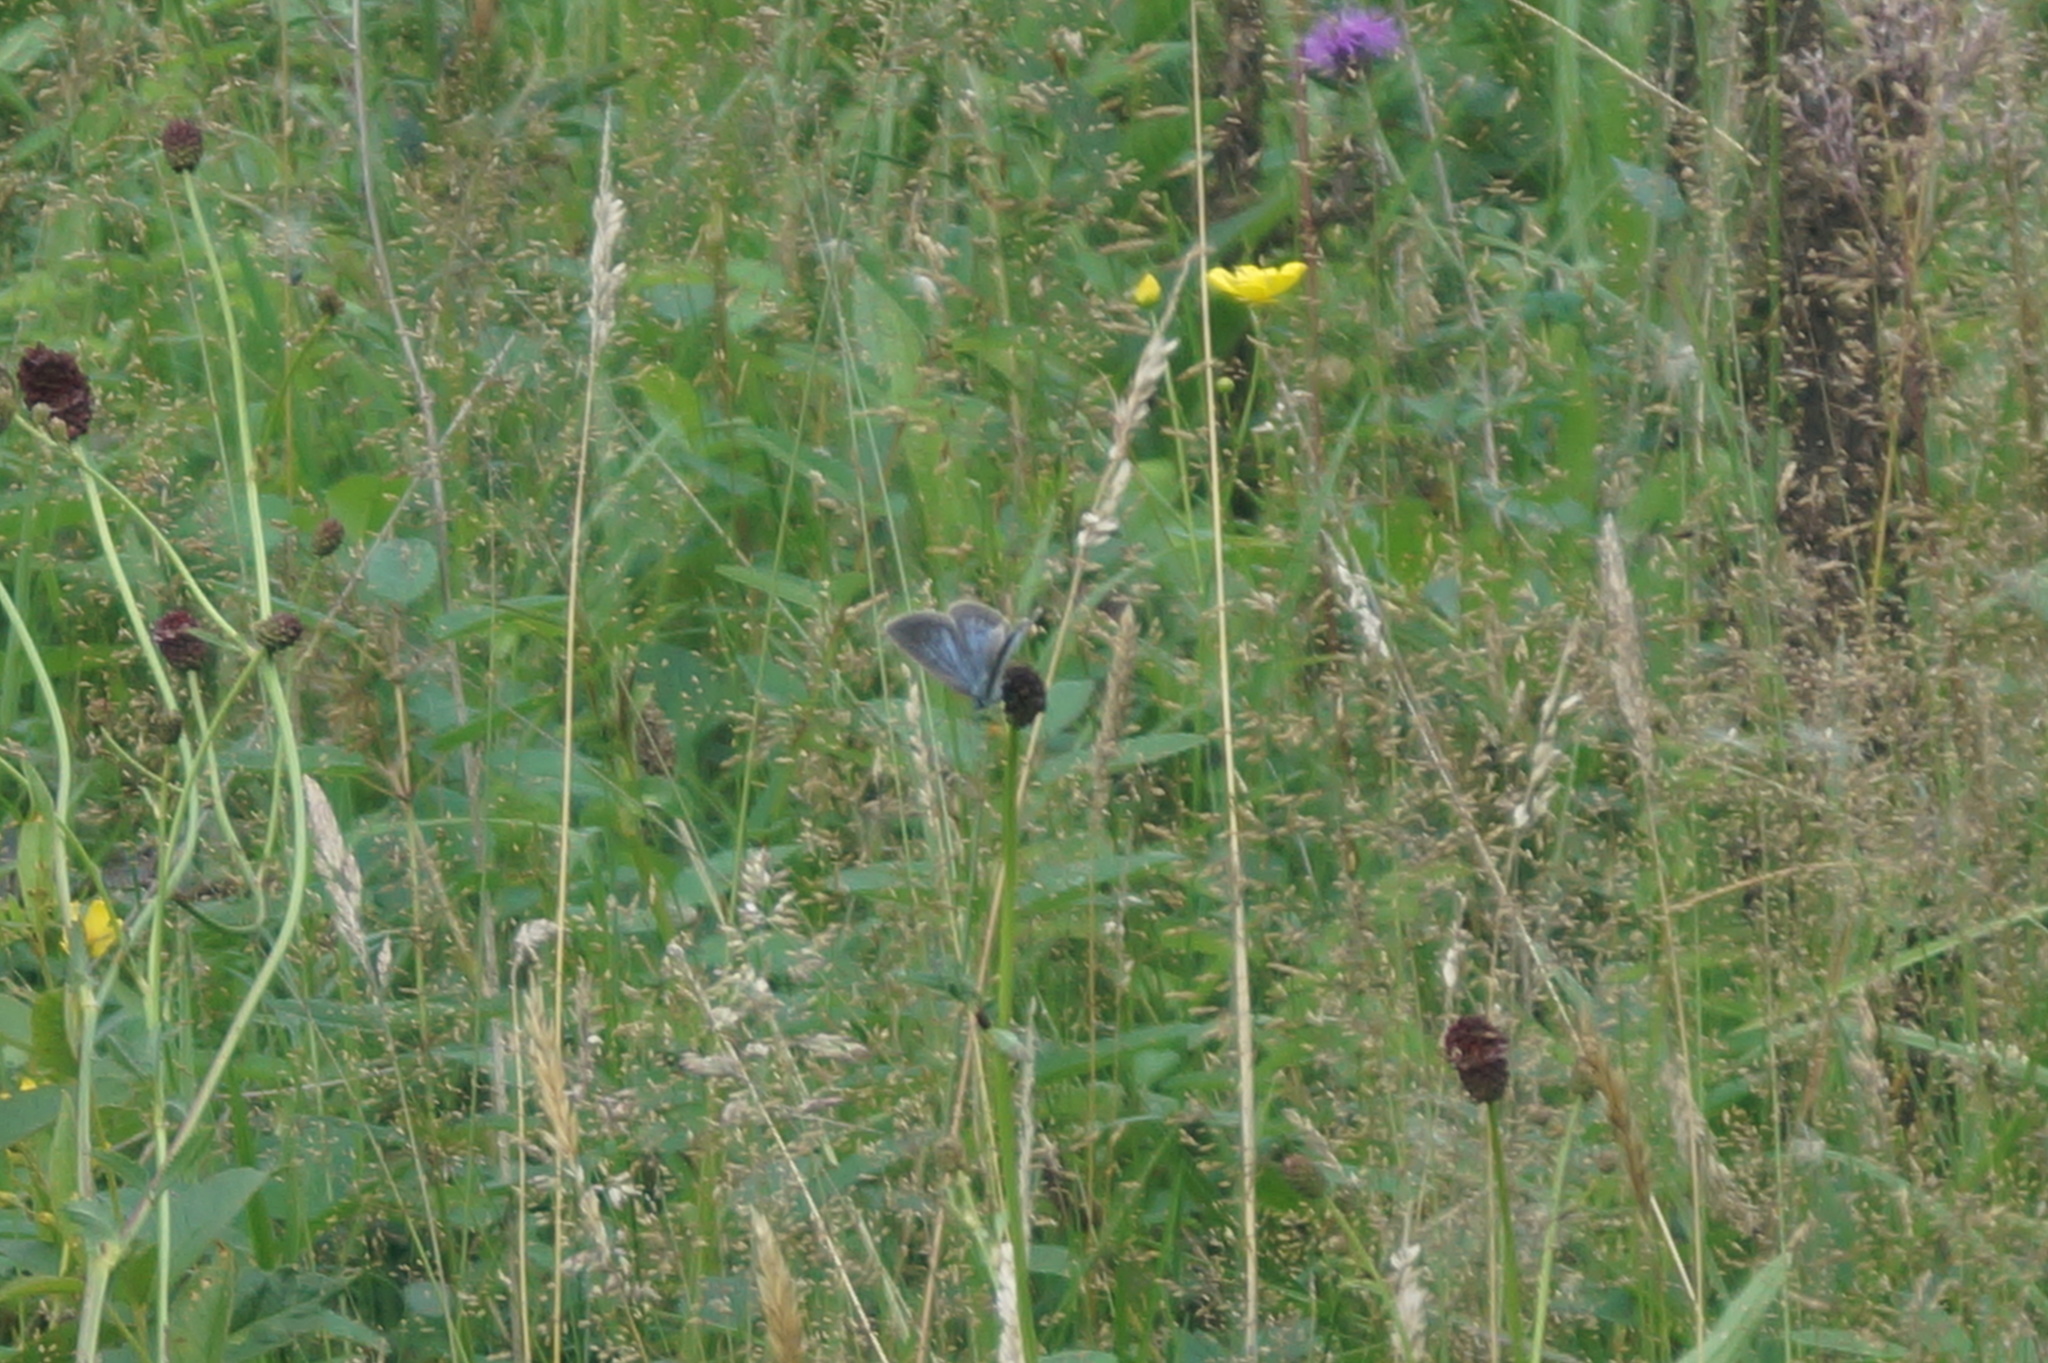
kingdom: Animalia
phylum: Arthropoda
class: Insecta
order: Lepidoptera
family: Lycaenidae
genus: Phengaris
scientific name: Phengaris teleius
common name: Scarce large blue
